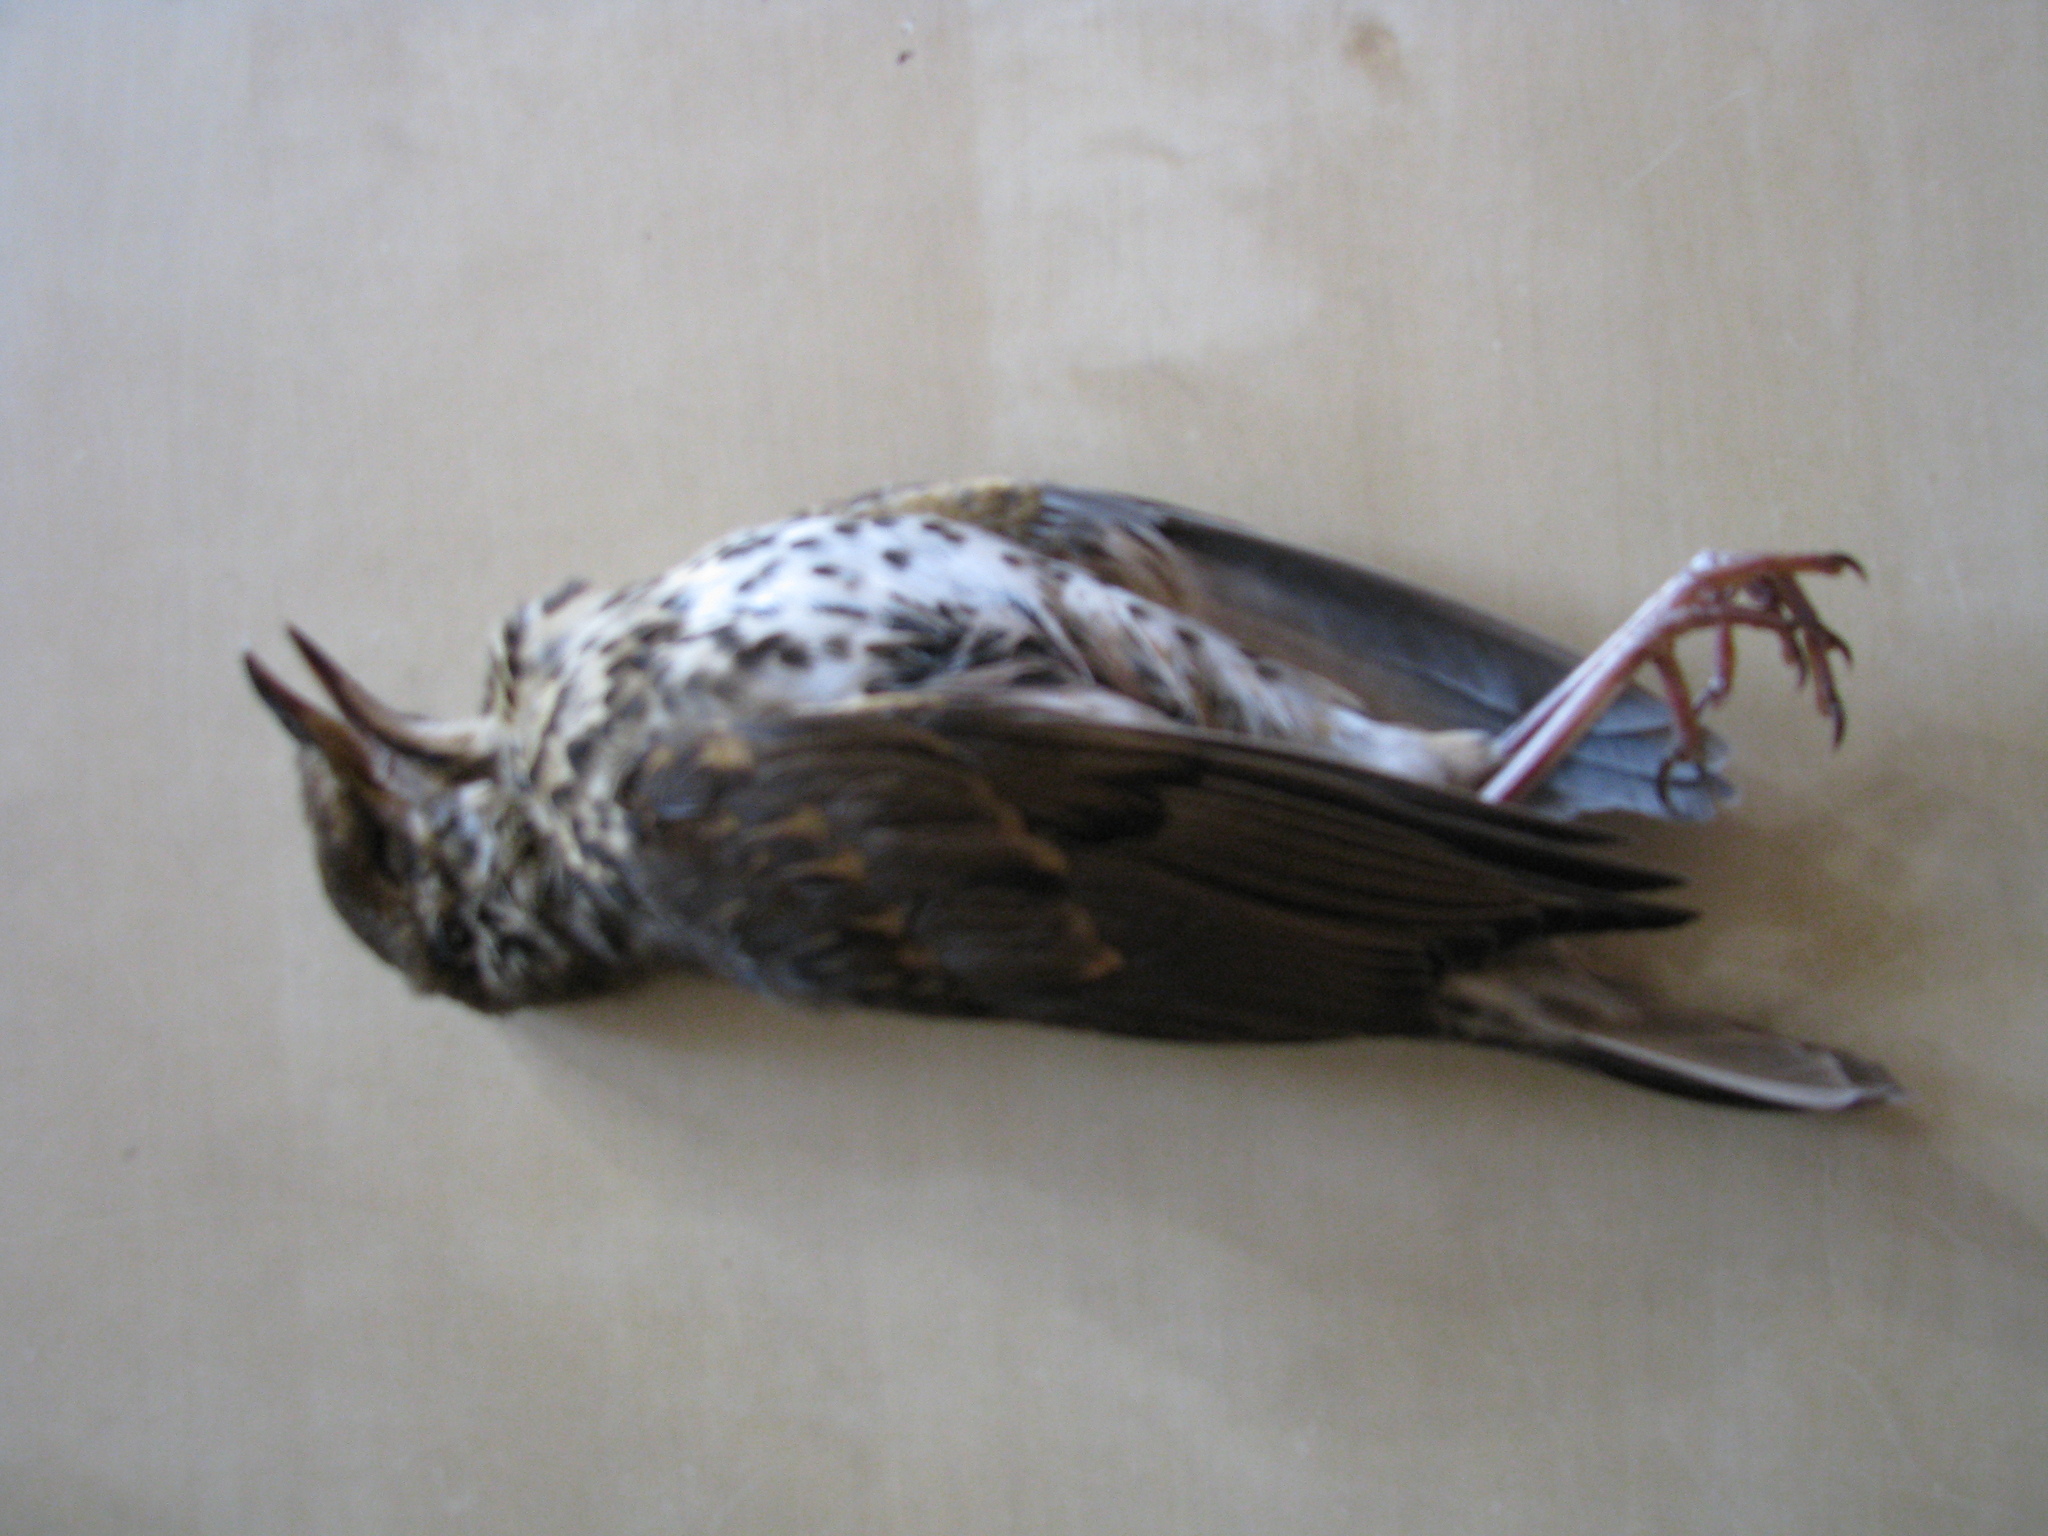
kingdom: Animalia
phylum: Chordata
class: Aves
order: Passeriformes
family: Turdidae
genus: Turdus
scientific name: Turdus philomelos
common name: Song thrush
